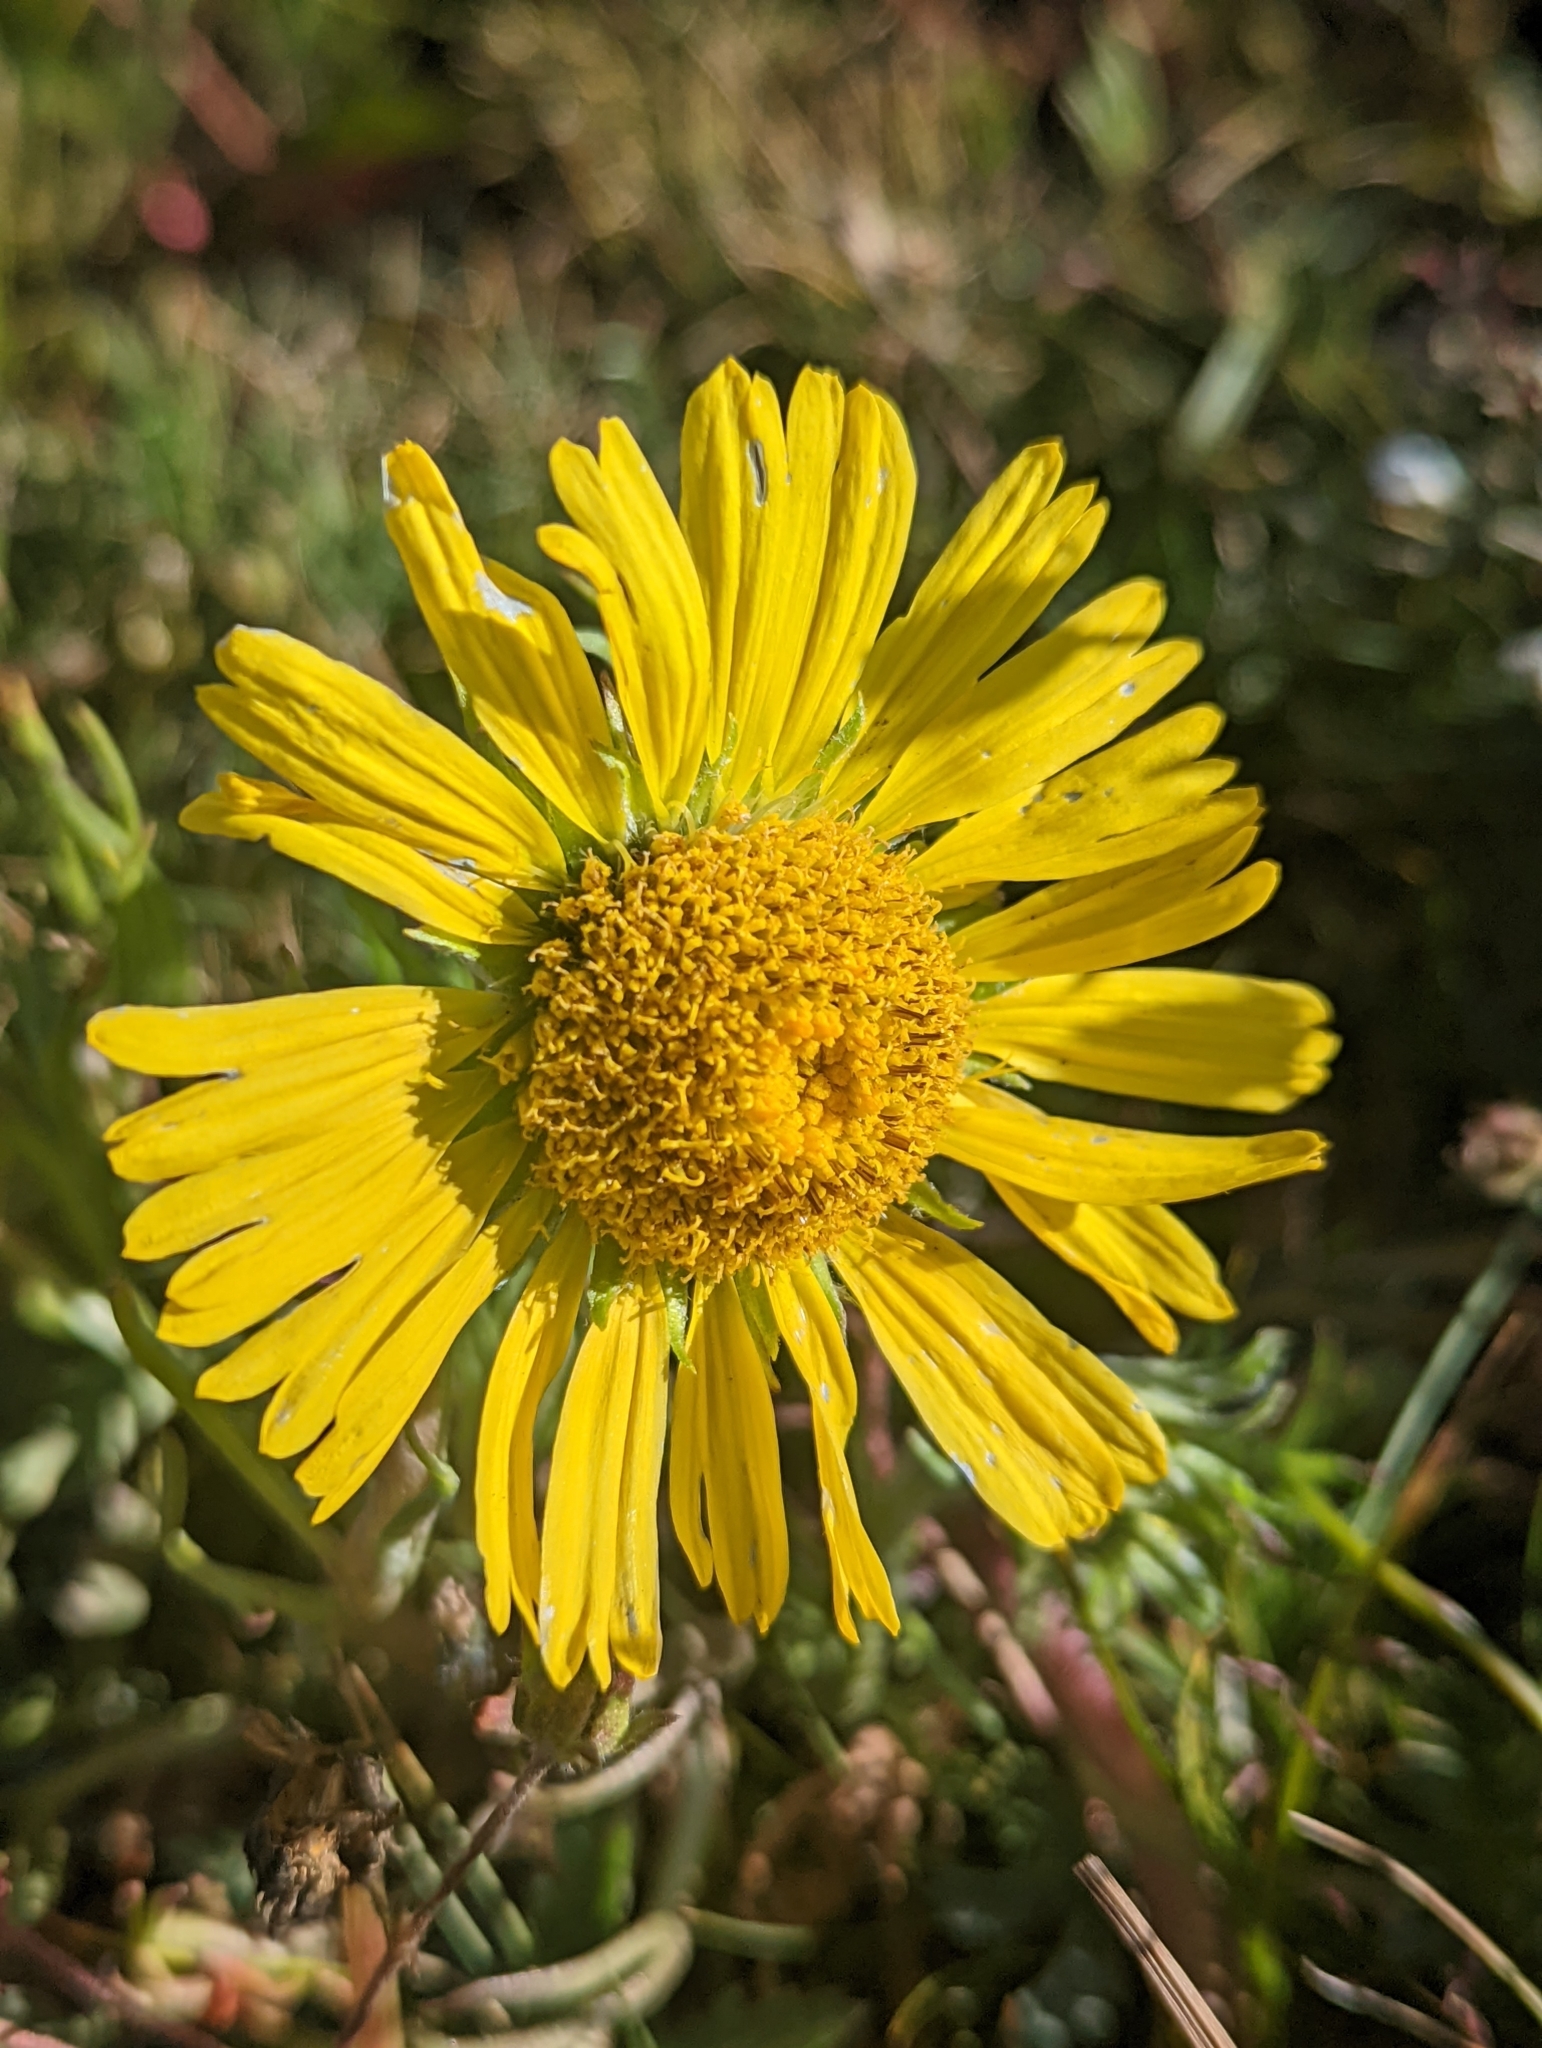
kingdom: Plantae
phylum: Tracheophyta
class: Magnoliopsida
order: Asterales
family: Asteraceae
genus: Hymenoxys
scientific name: Hymenoxys grandiflora
